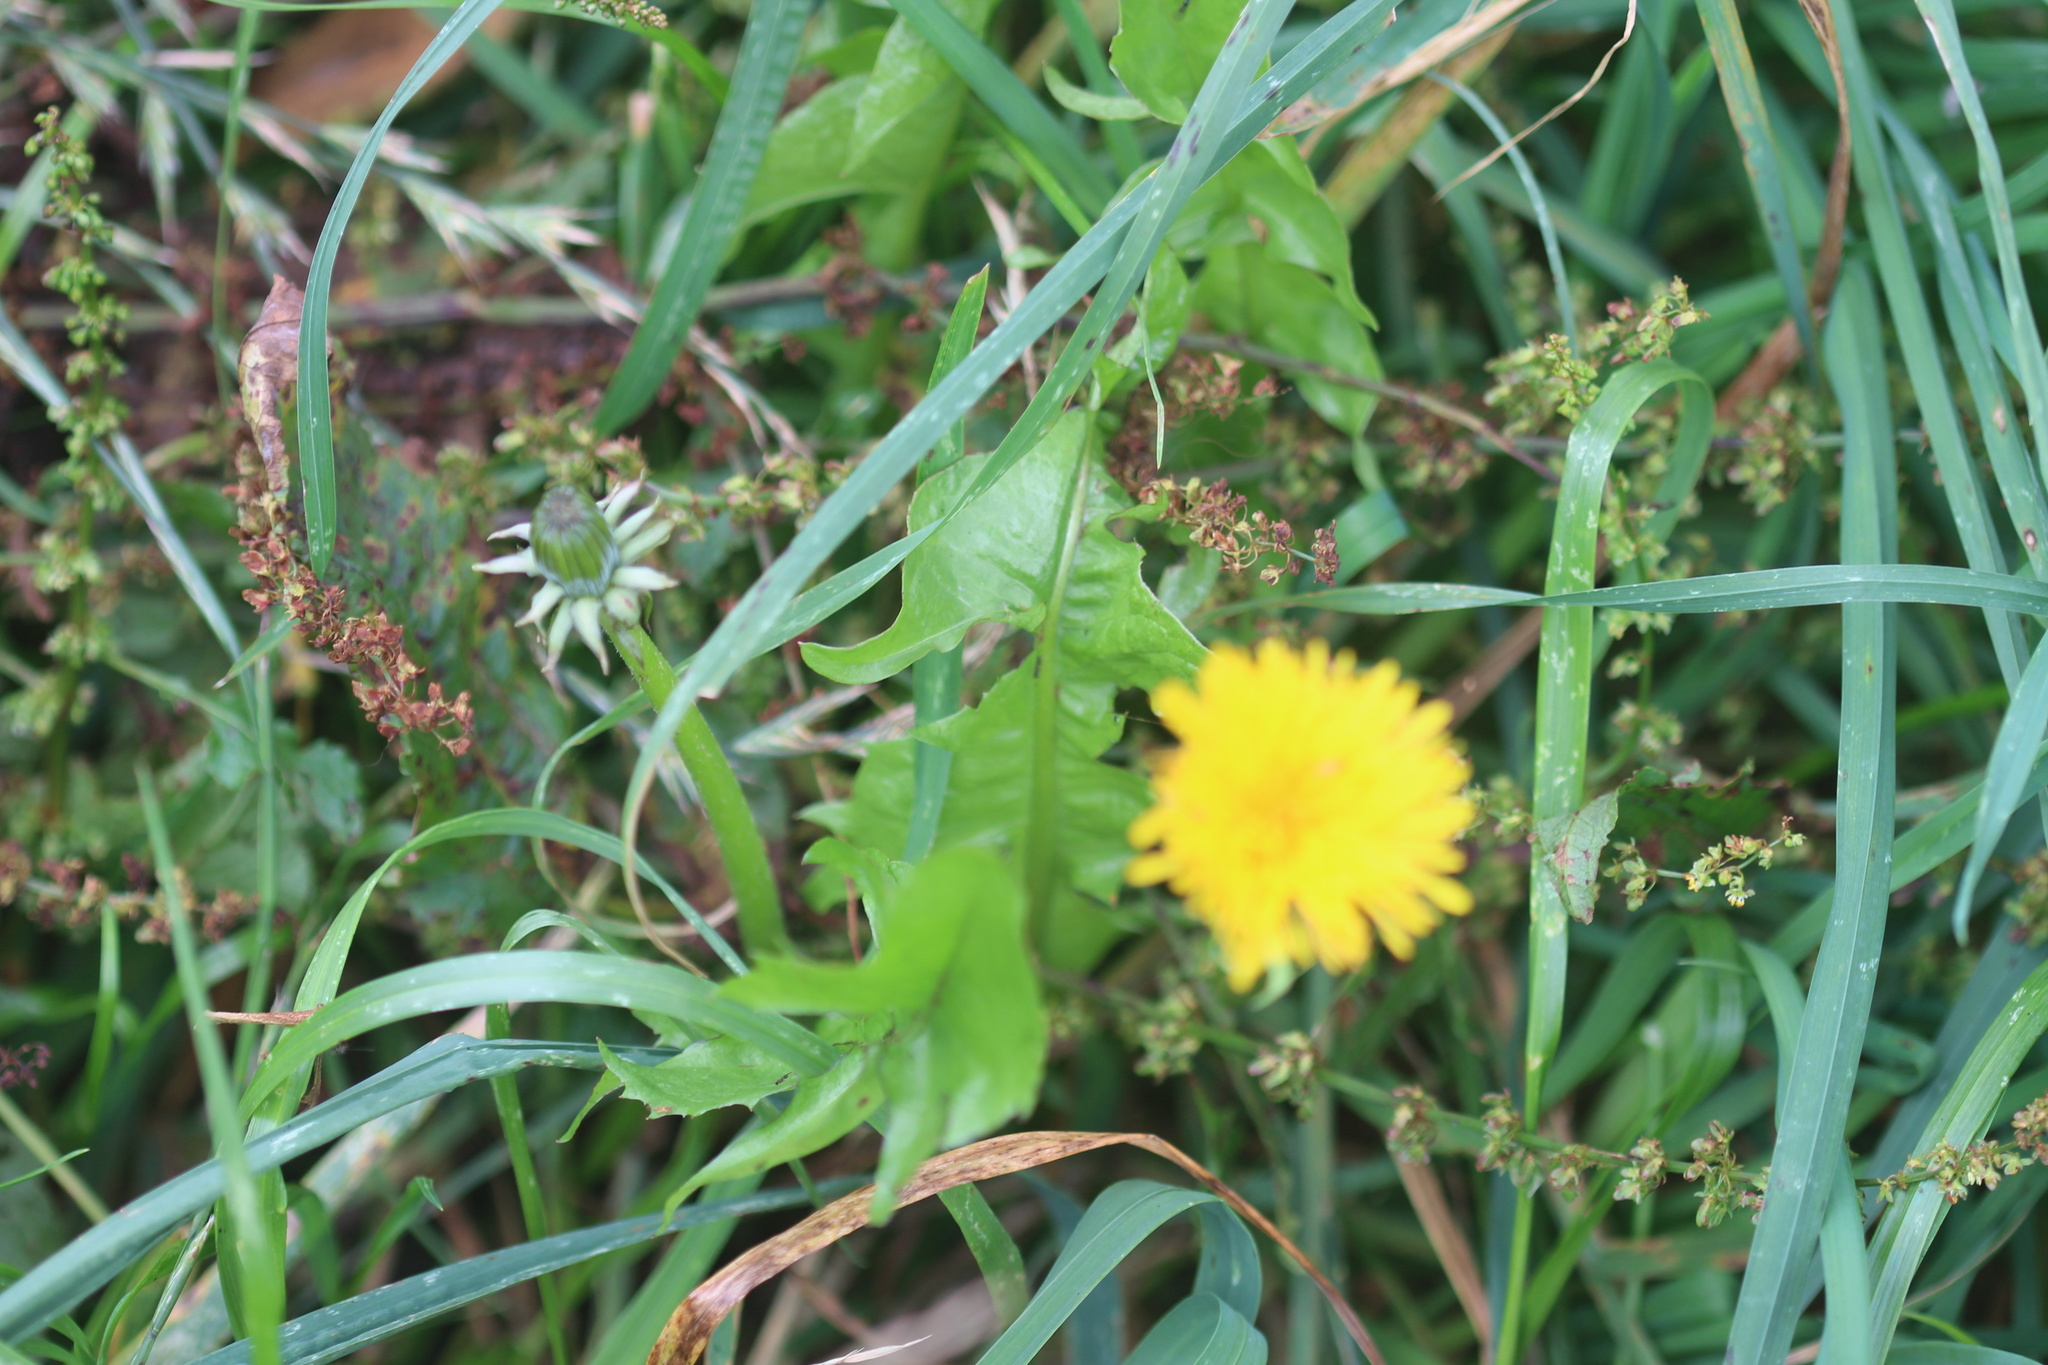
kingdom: Plantae
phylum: Tracheophyta
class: Magnoliopsida
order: Asterales
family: Asteraceae
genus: Taraxacum
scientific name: Taraxacum officinale
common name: Common dandelion
